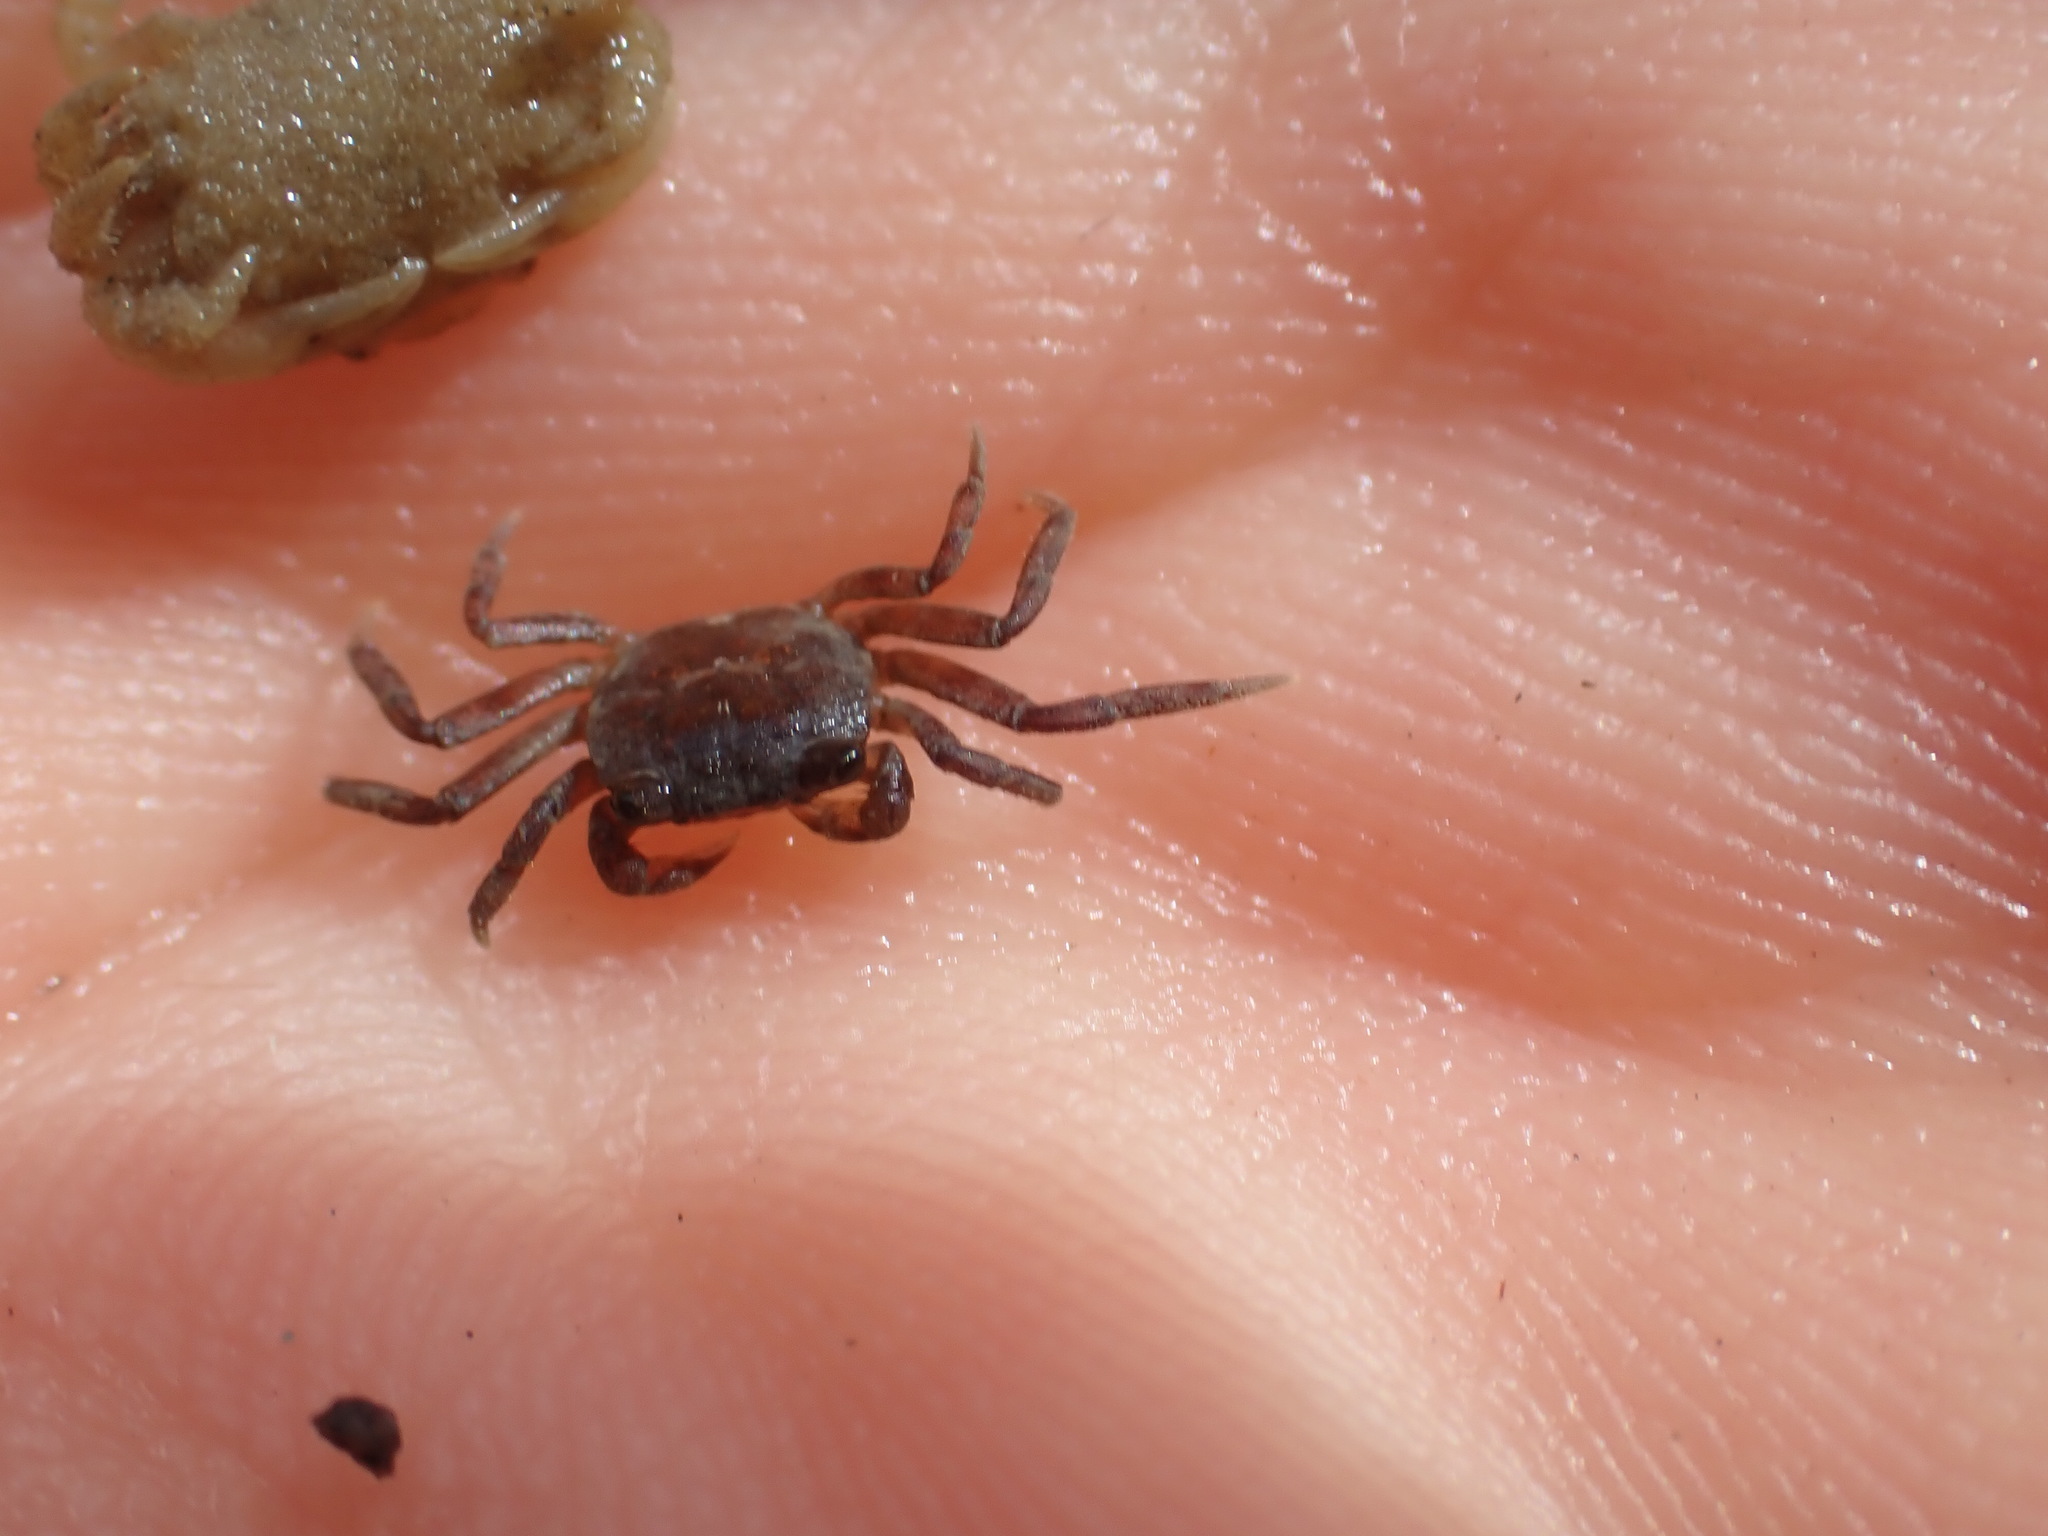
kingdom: Animalia
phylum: Arthropoda
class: Malacostraca
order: Decapoda
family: Varunidae
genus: Cyclograpsus
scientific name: Cyclograpsus lavauxi
